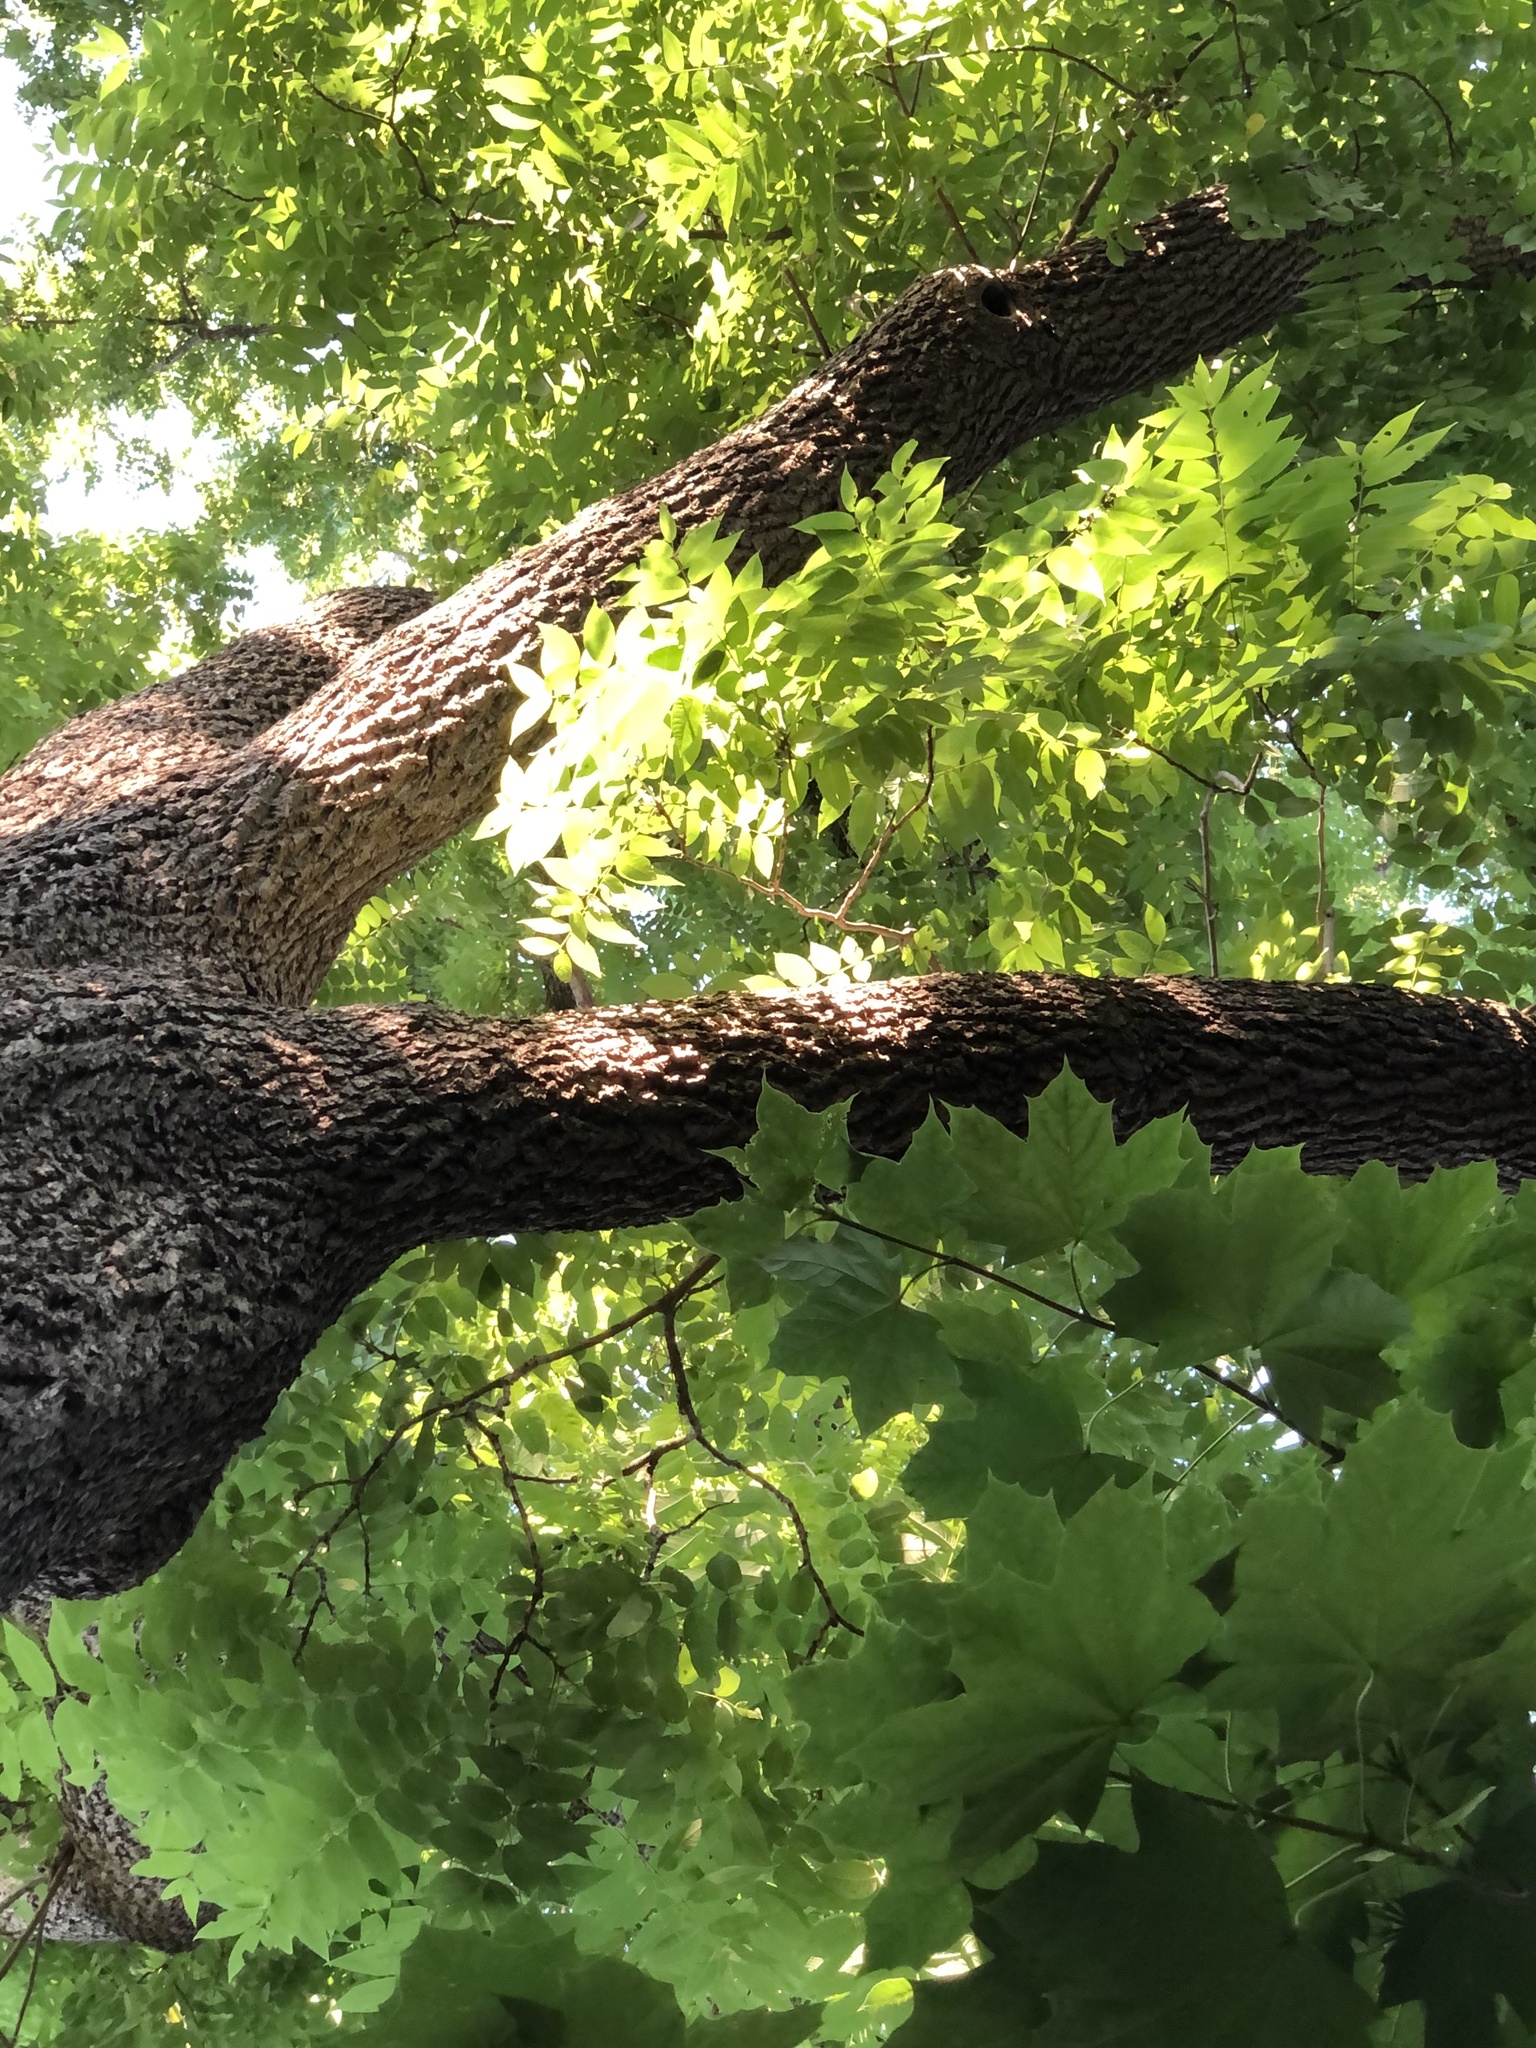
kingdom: Plantae
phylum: Tracheophyta
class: Magnoliopsida
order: Fagales
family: Juglandaceae
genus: Juglans
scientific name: Juglans nigra
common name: Black walnut
